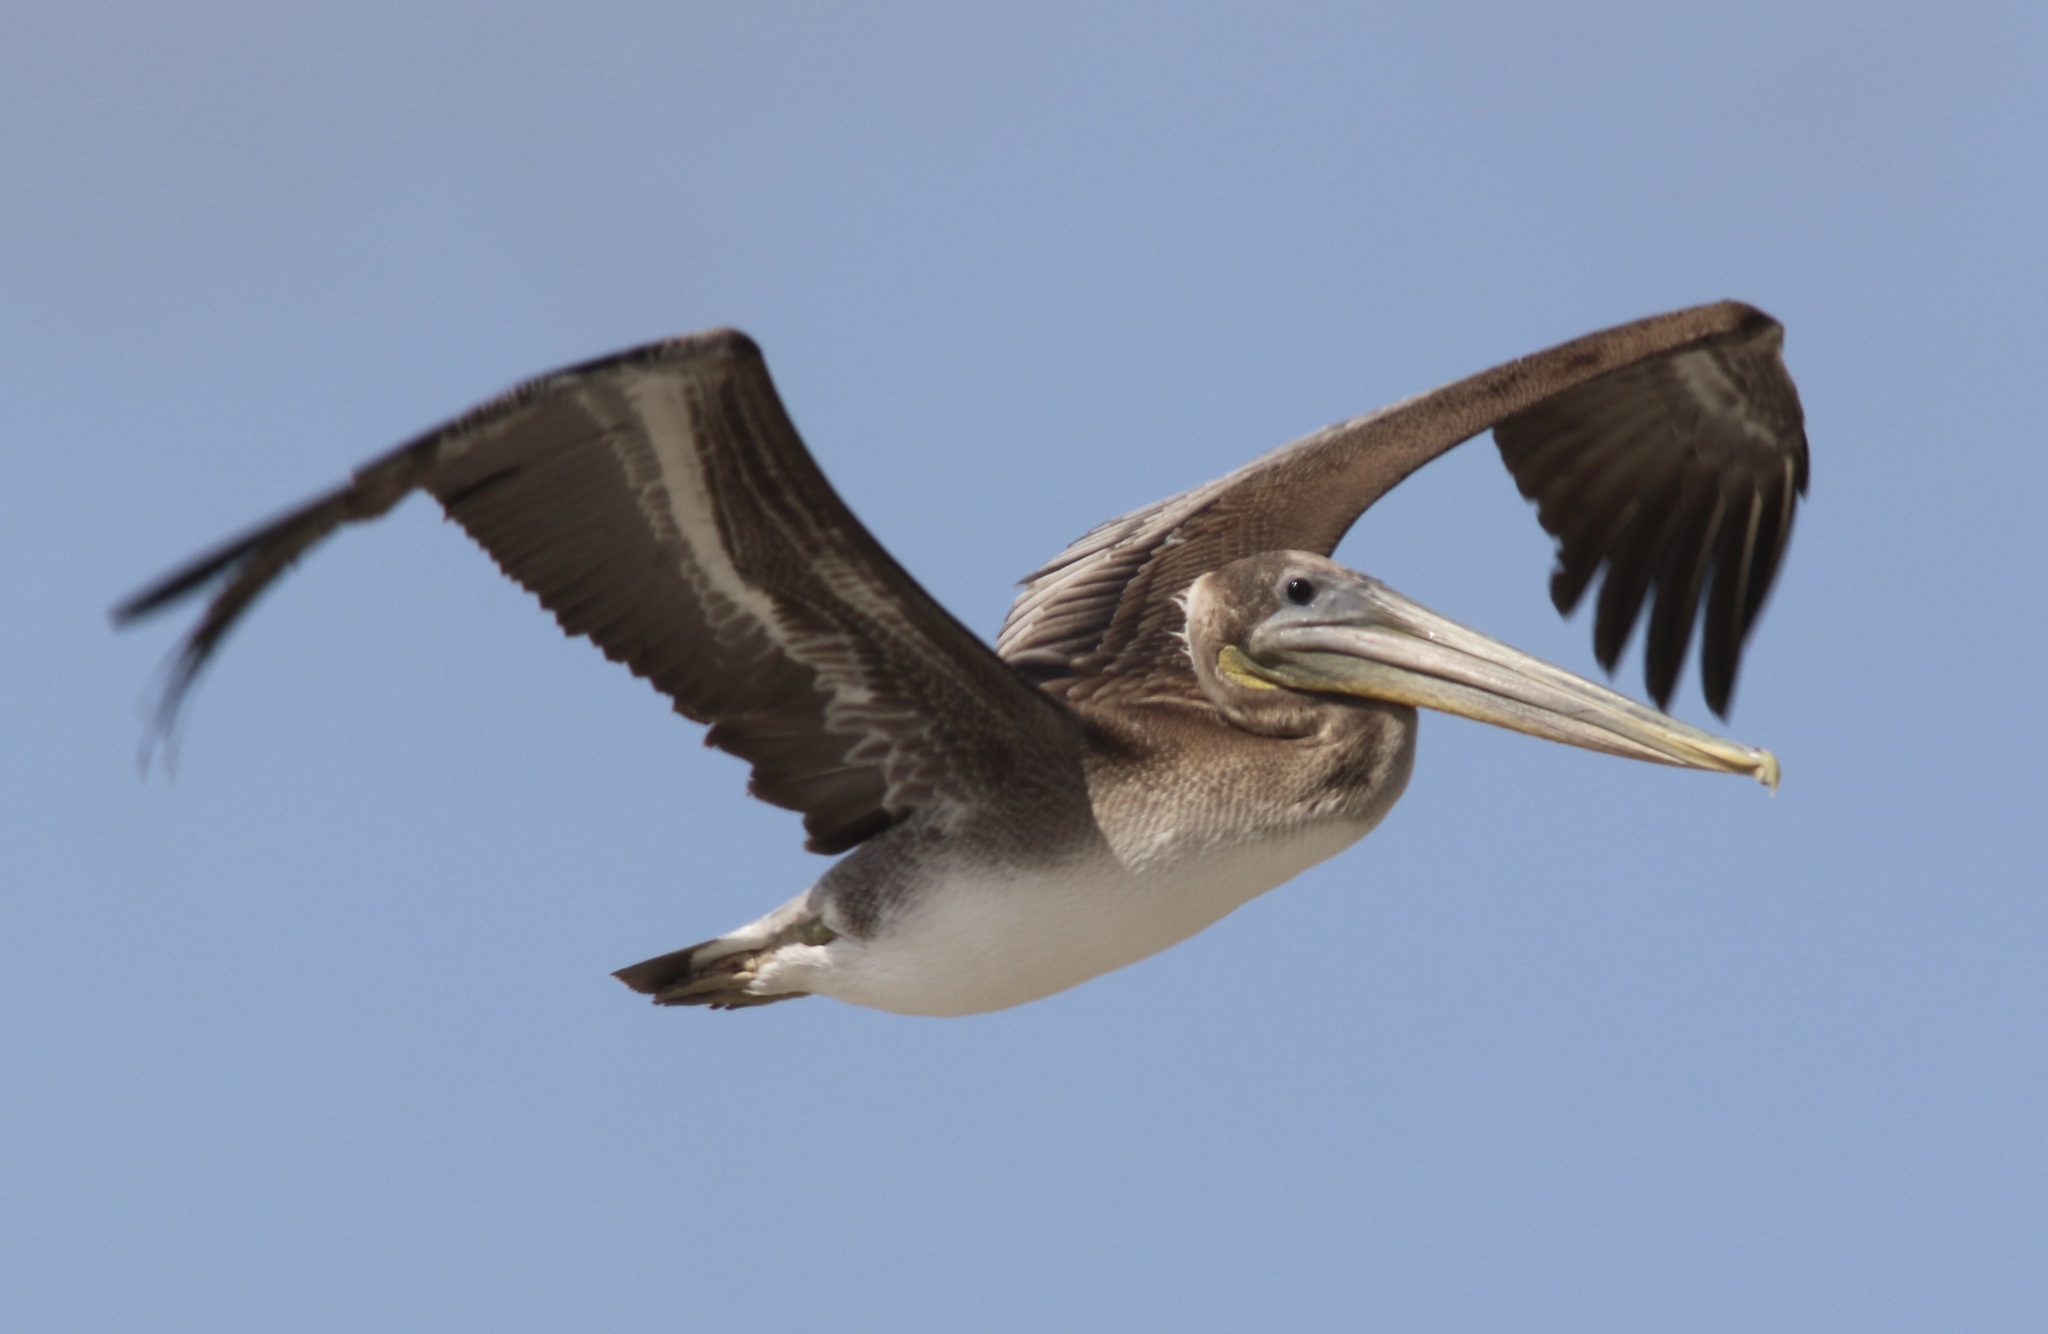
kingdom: Animalia
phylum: Chordata
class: Aves
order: Pelecaniformes
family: Pelecanidae
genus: Pelecanus
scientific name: Pelecanus occidentalis
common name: Brown pelican
